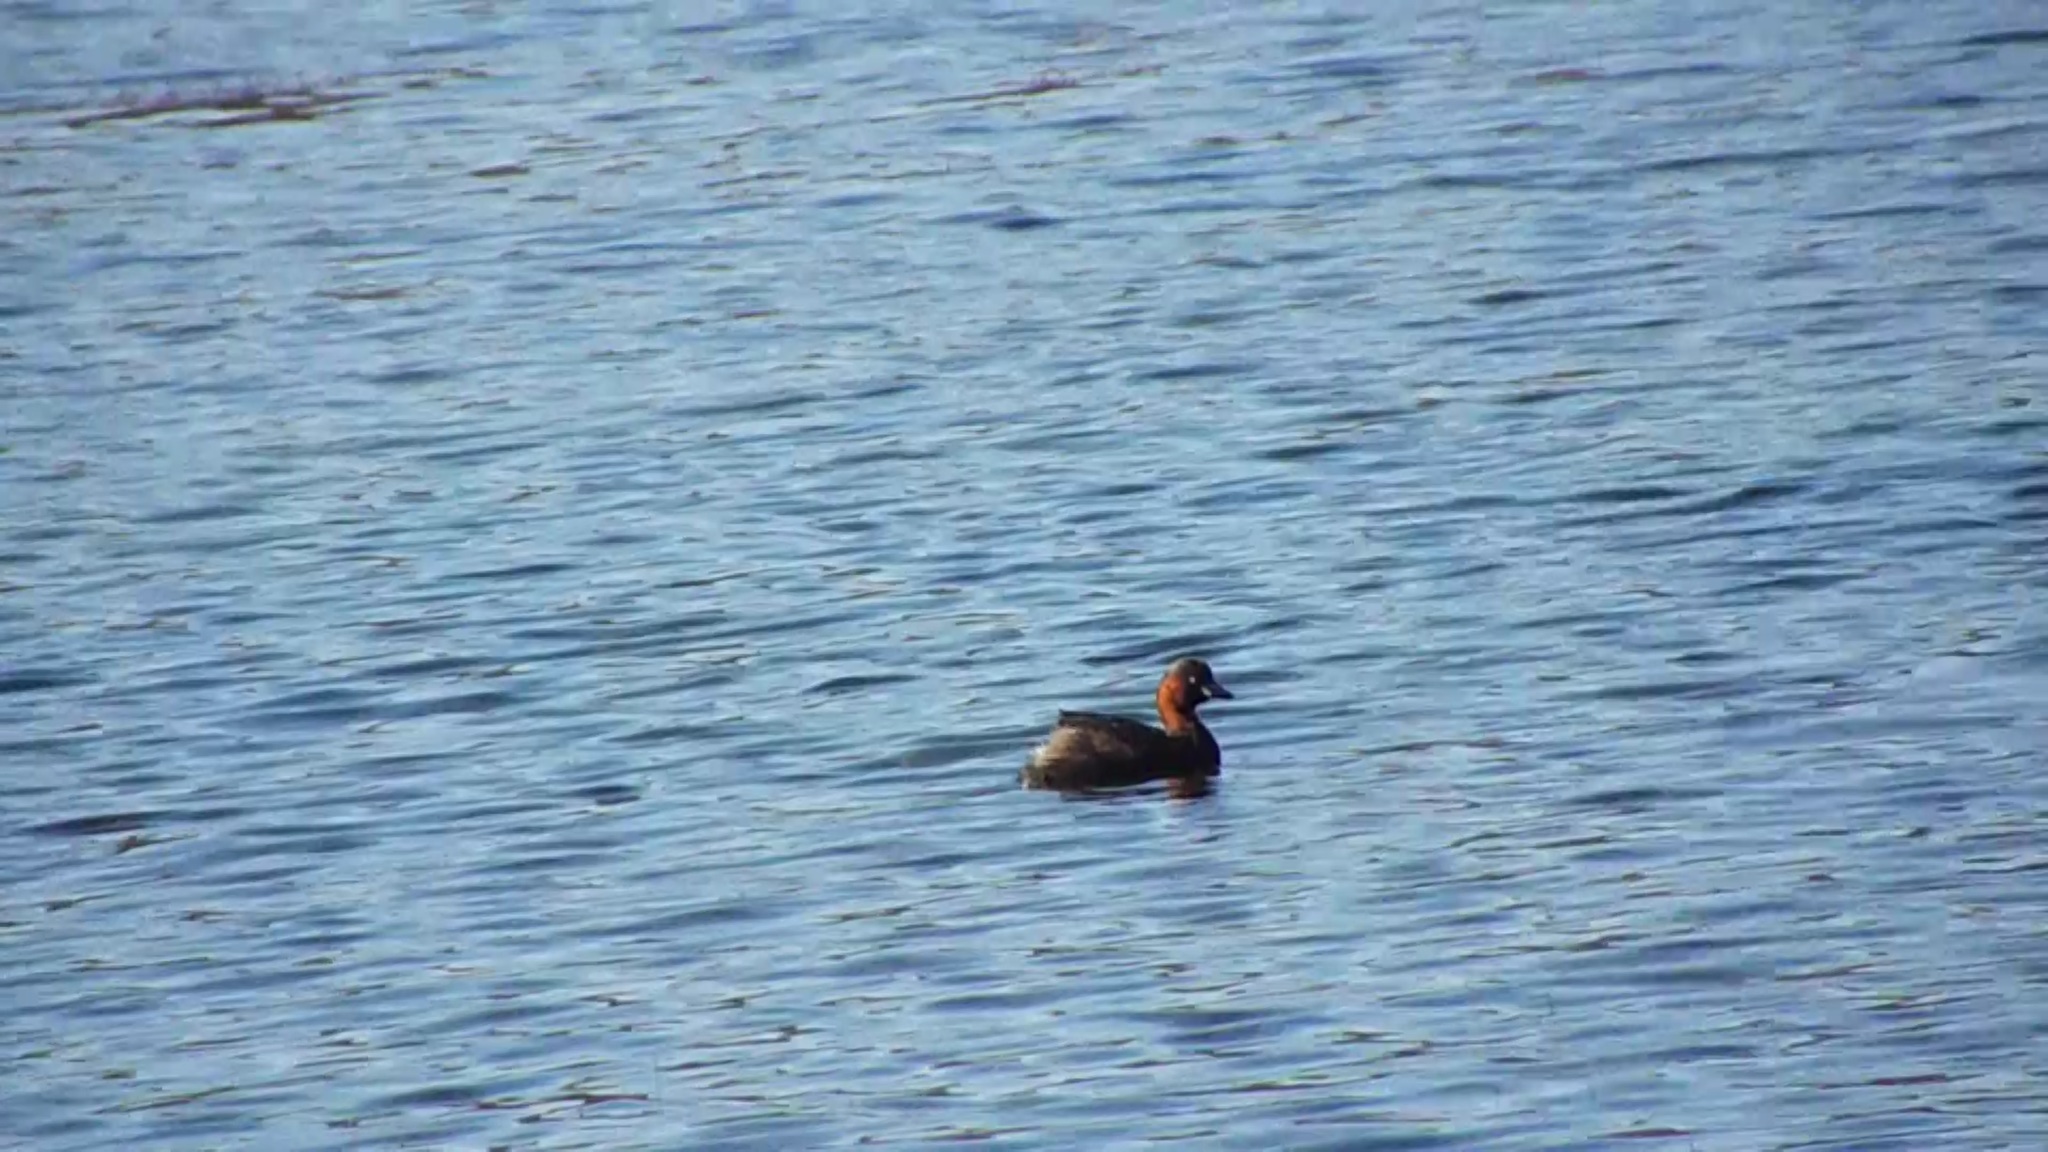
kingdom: Animalia
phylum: Chordata
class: Aves
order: Podicipediformes
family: Podicipedidae
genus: Tachybaptus
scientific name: Tachybaptus ruficollis
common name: Little grebe
